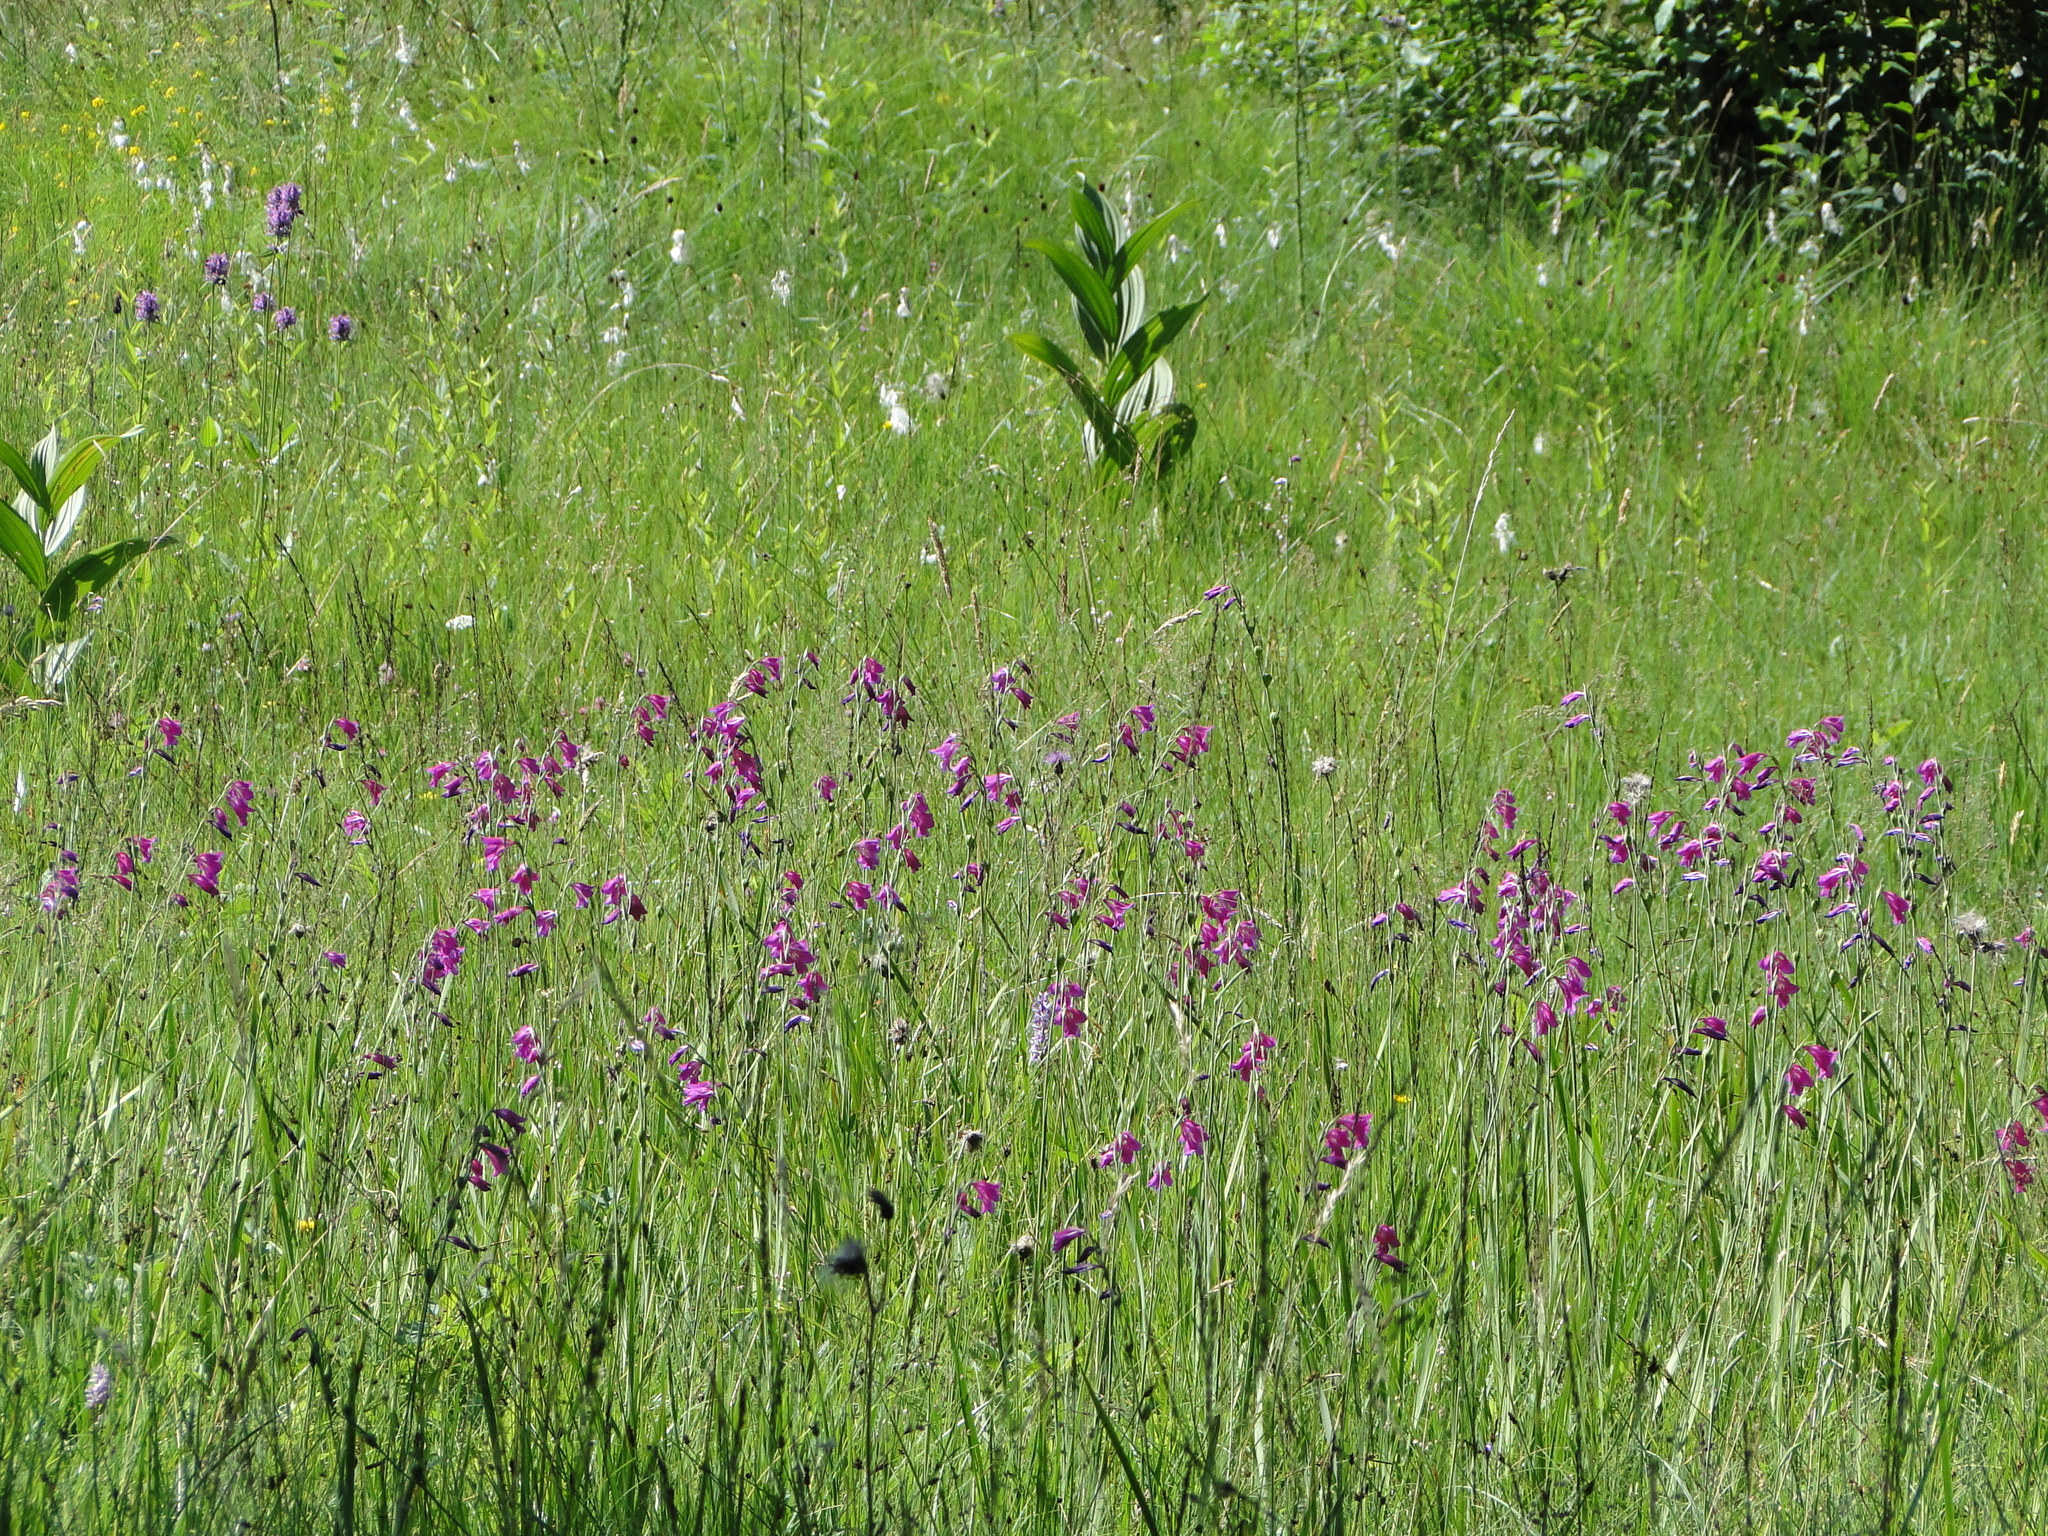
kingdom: Plantae
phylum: Tracheophyta
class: Liliopsida
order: Asparagales
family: Iridaceae
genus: Gladiolus
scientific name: Gladiolus palustris
